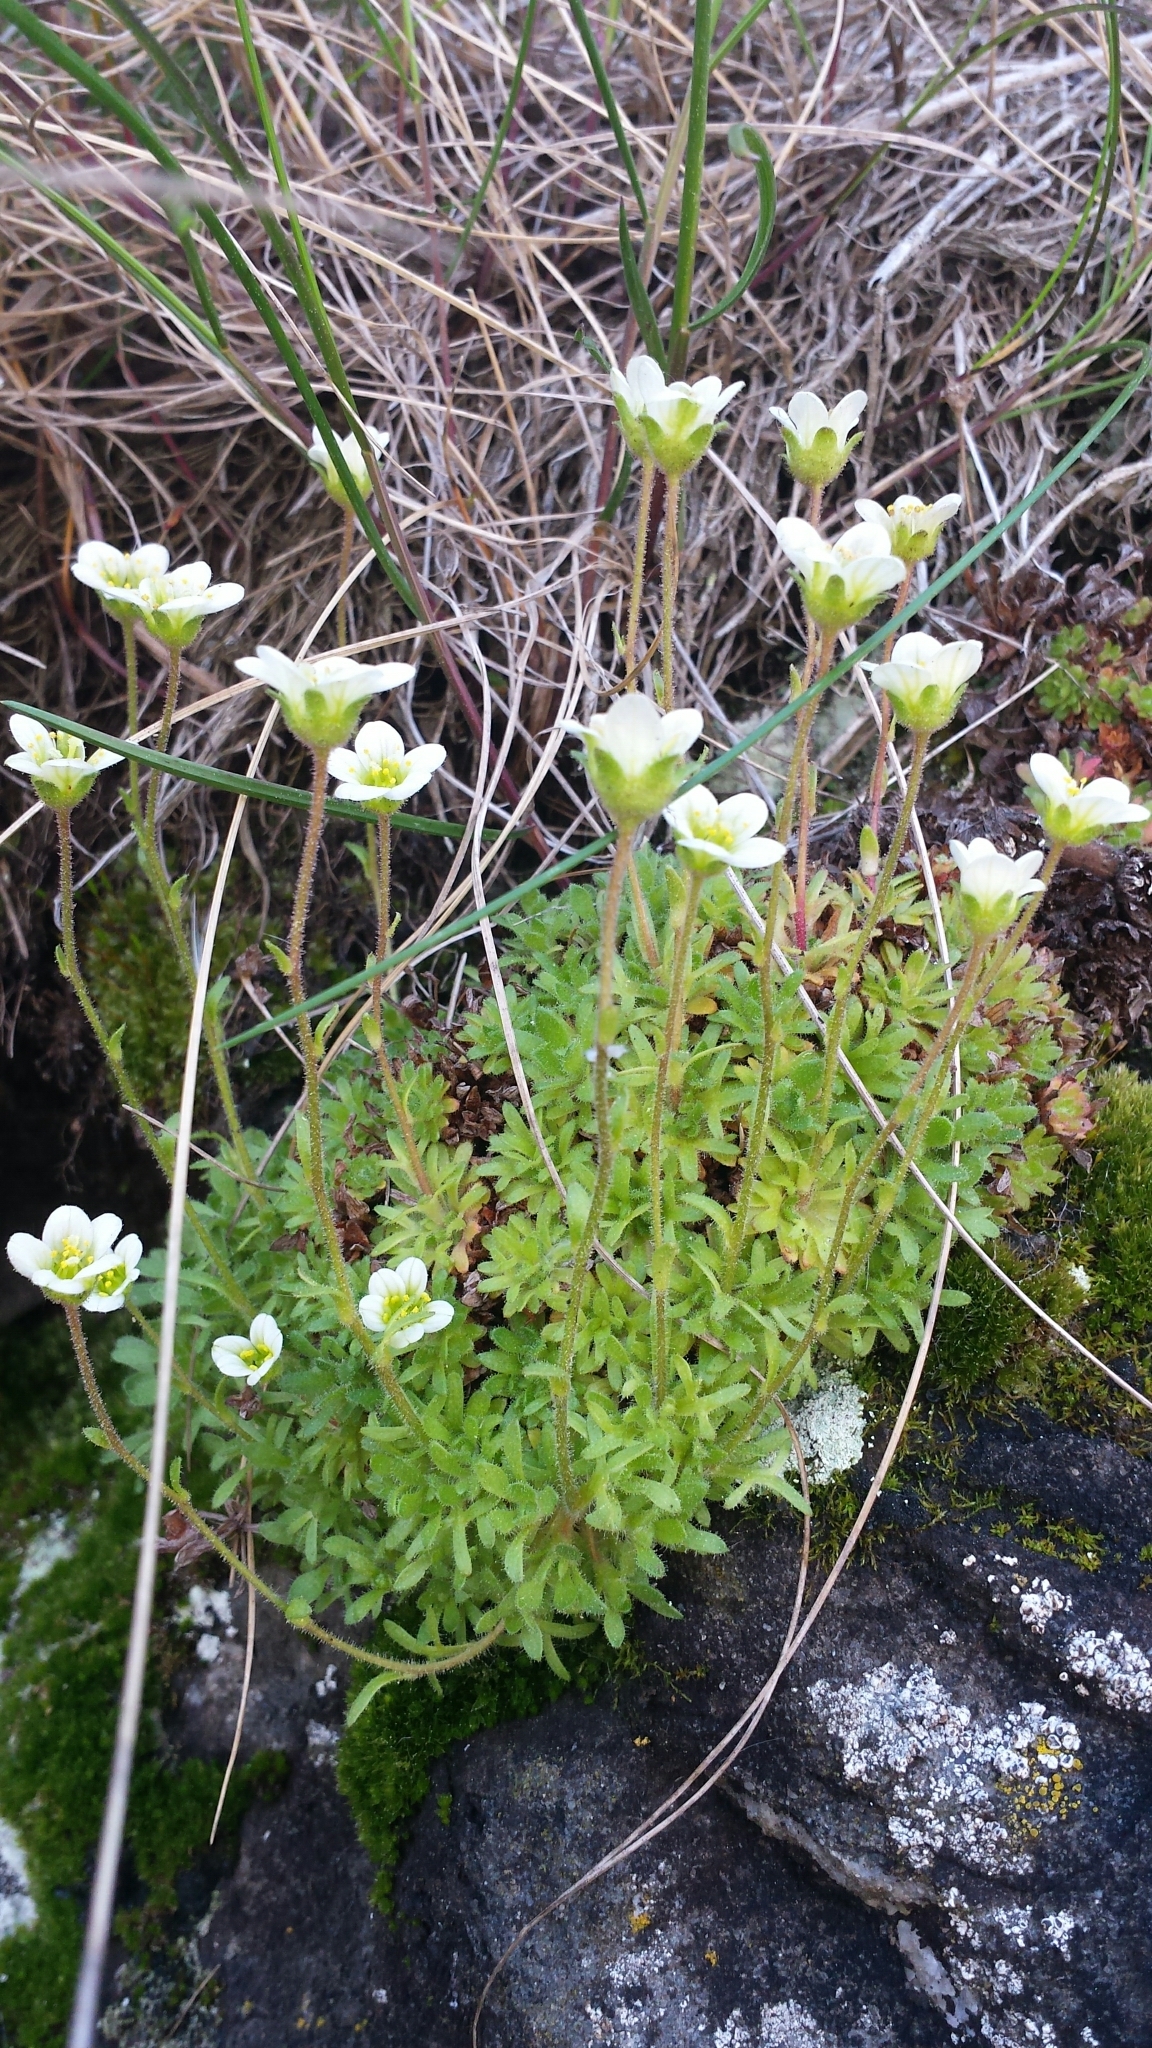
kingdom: Plantae
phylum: Tracheophyta
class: Magnoliopsida
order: Caryophyllales
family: Caryophyllaceae
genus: Geocarpon
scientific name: Geocarpon groenlandicum
